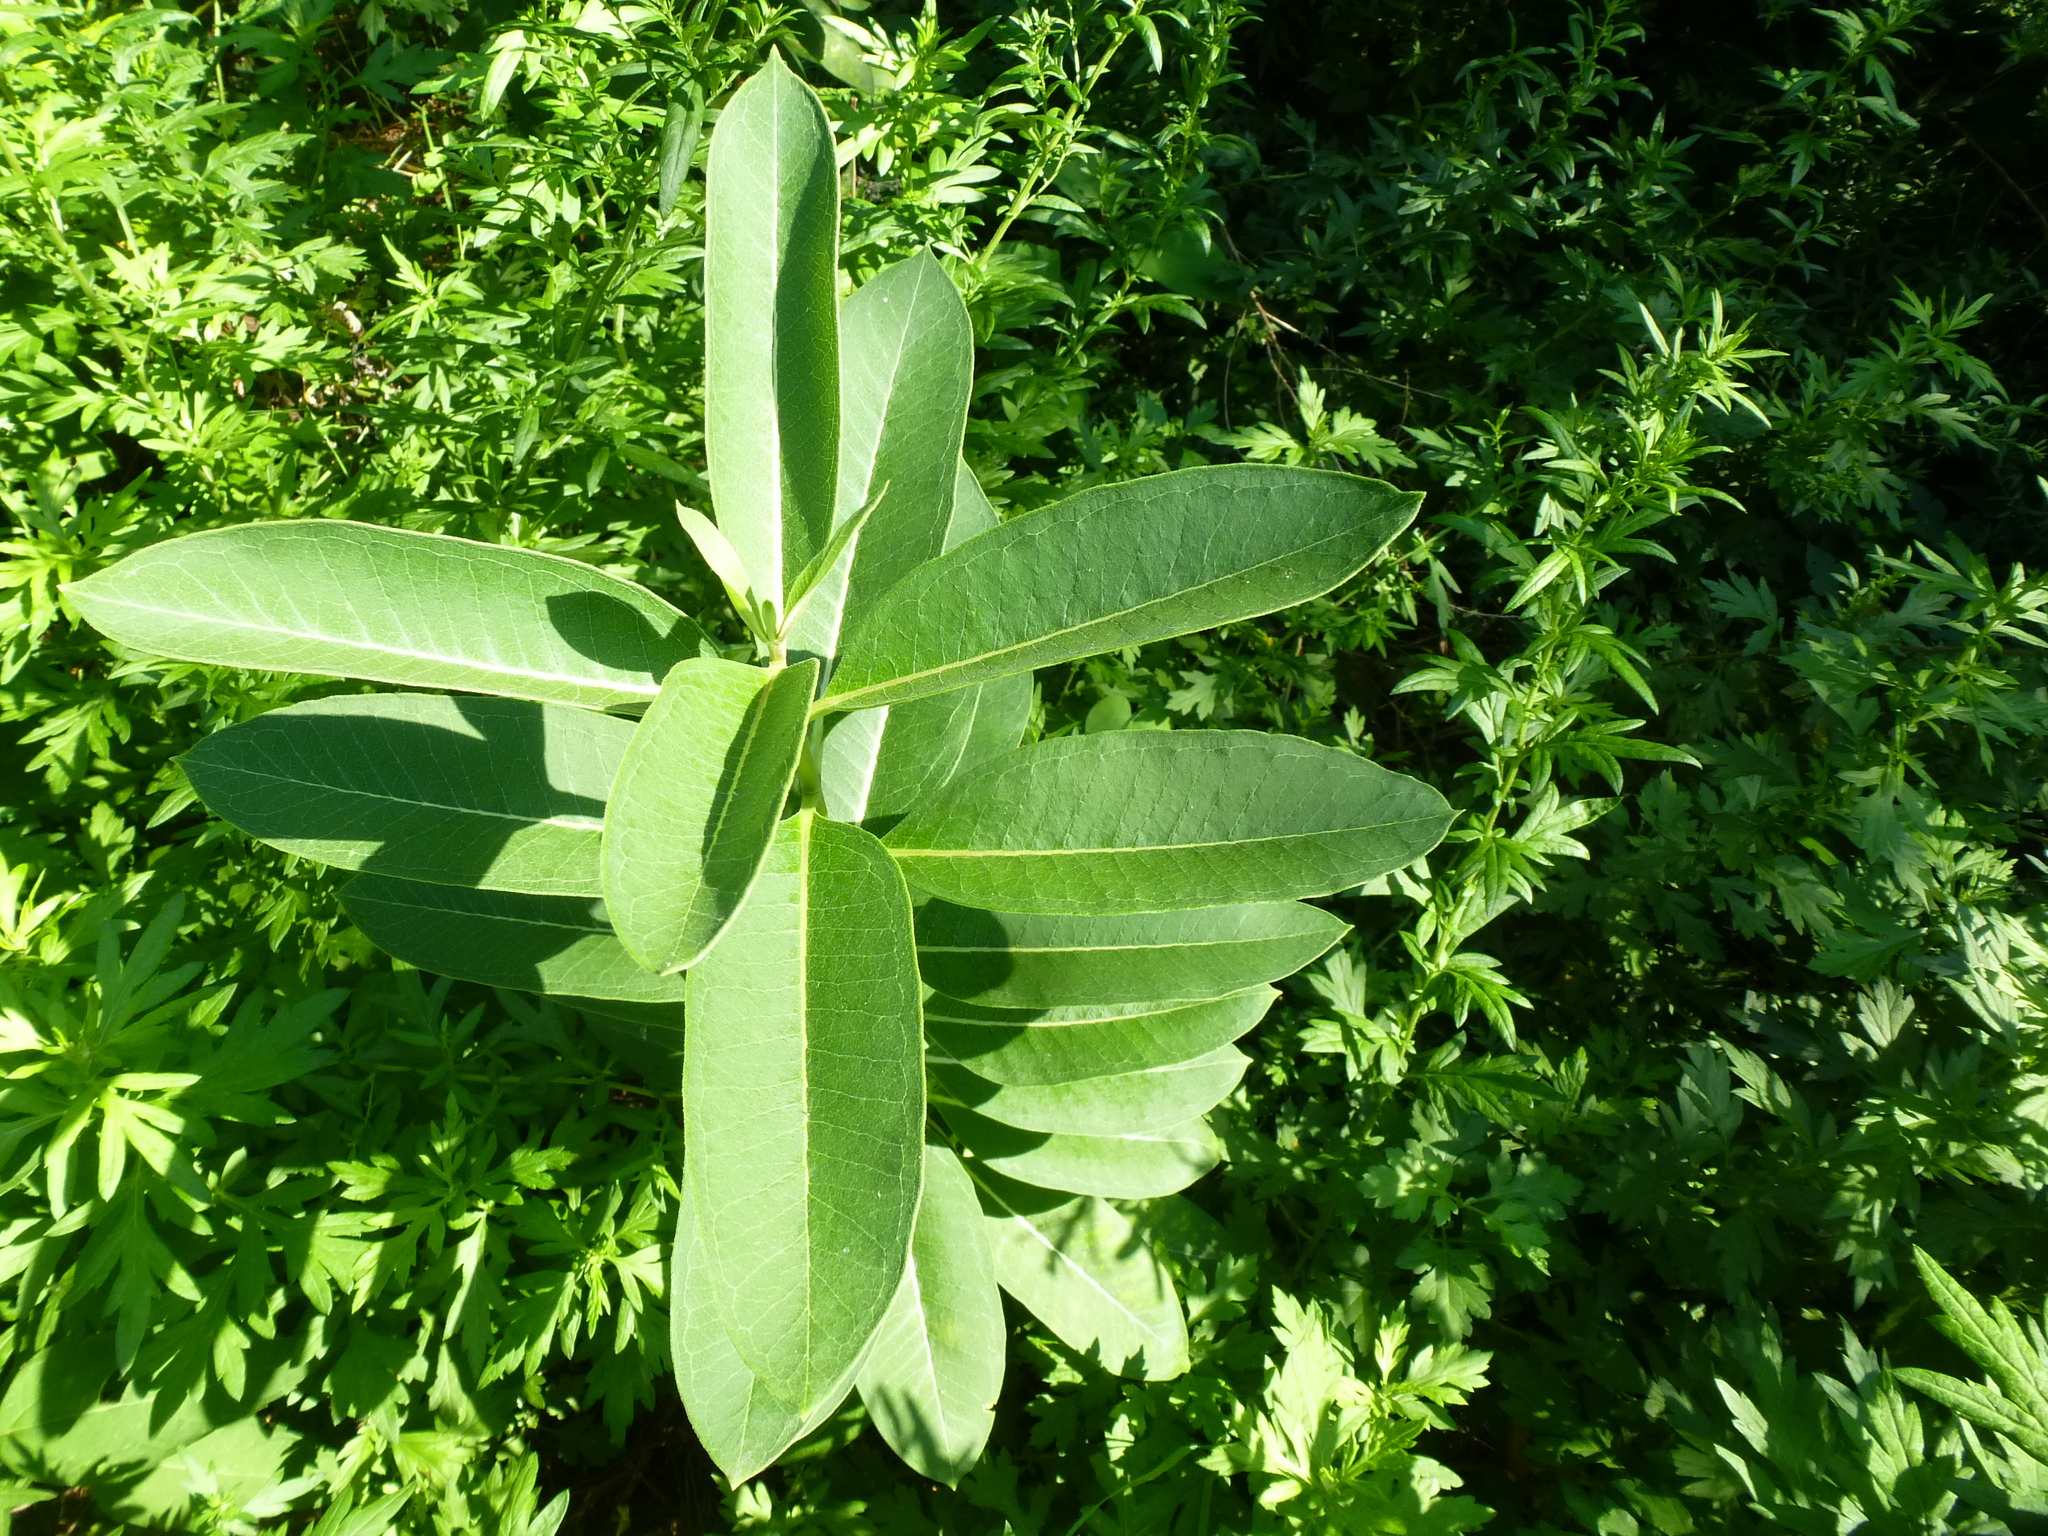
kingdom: Plantae
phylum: Tracheophyta
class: Magnoliopsida
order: Gentianales
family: Apocynaceae
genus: Asclepias
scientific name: Asclepias syriaca
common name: Common milkweed
